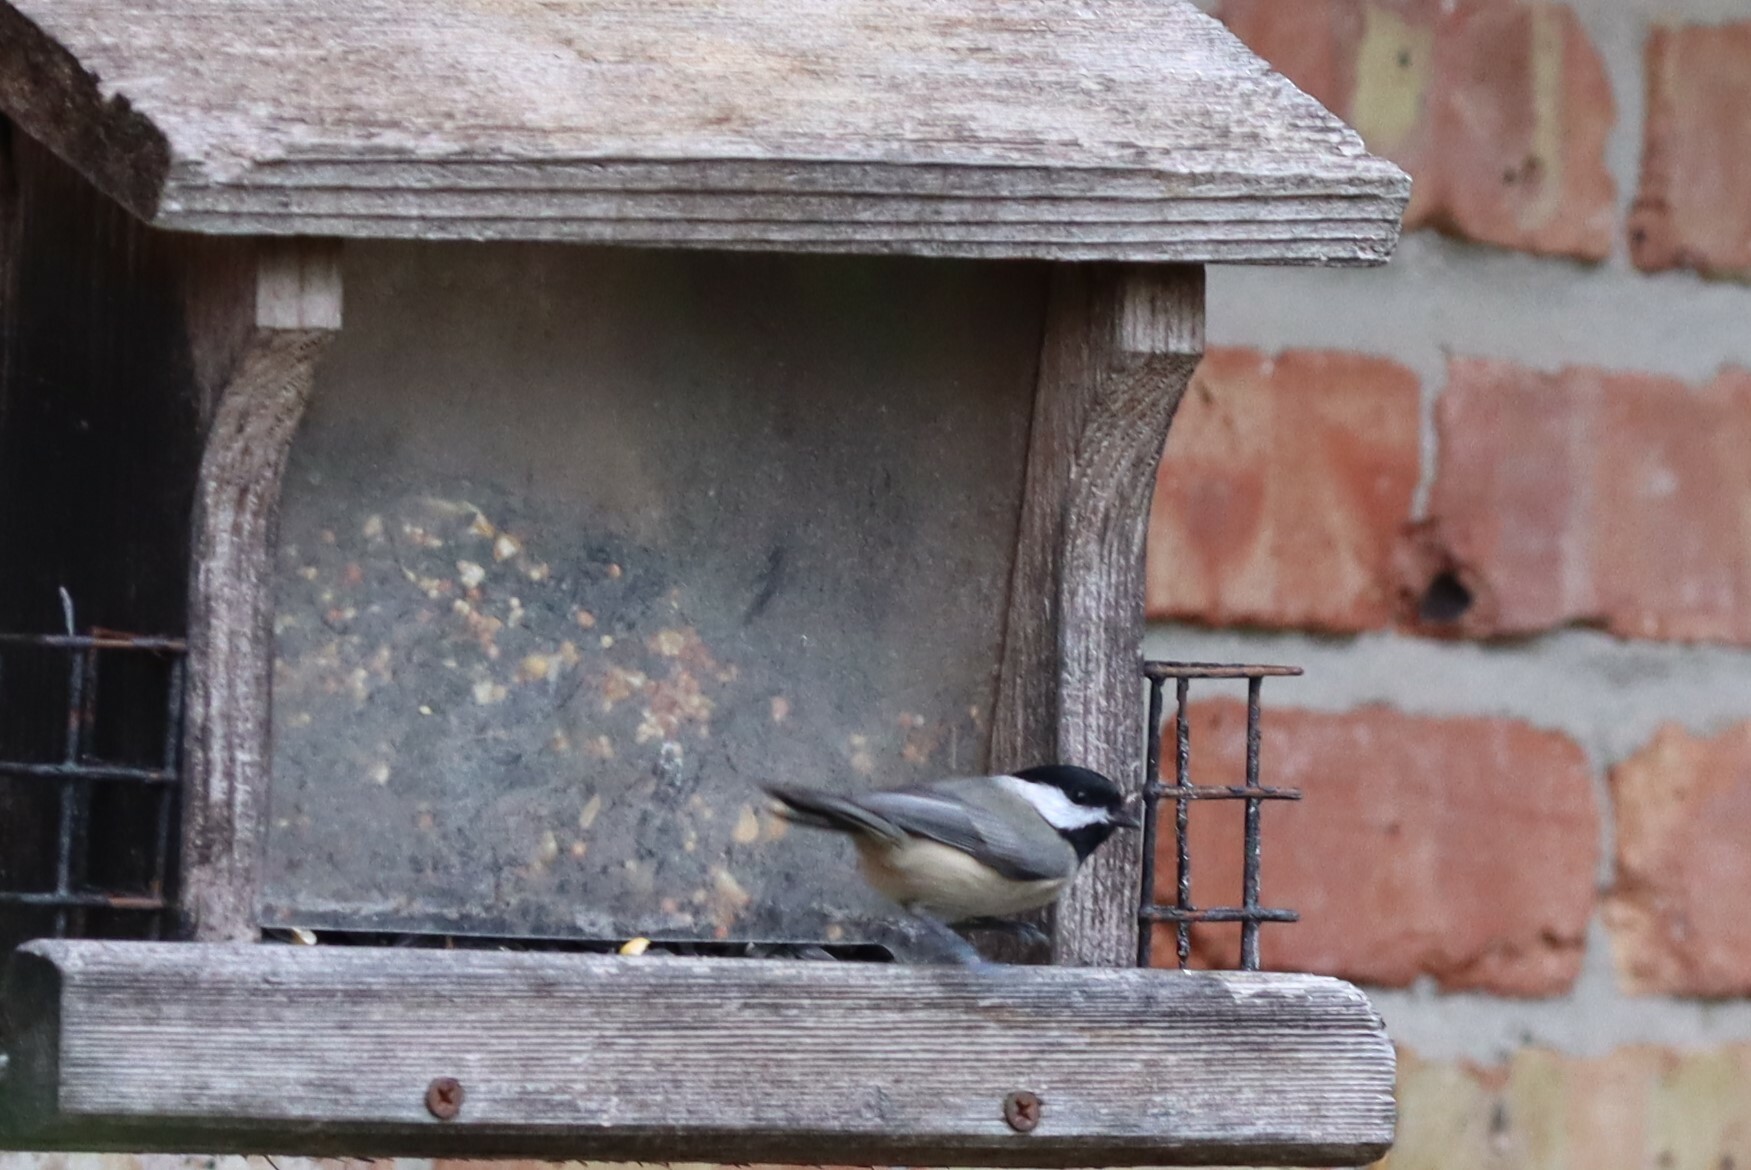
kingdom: Animalia
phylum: Chordata
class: Aves
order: Passeriformes
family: Paridae
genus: Poecile
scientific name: Poecile carolinensis
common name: Carolina chickadee
